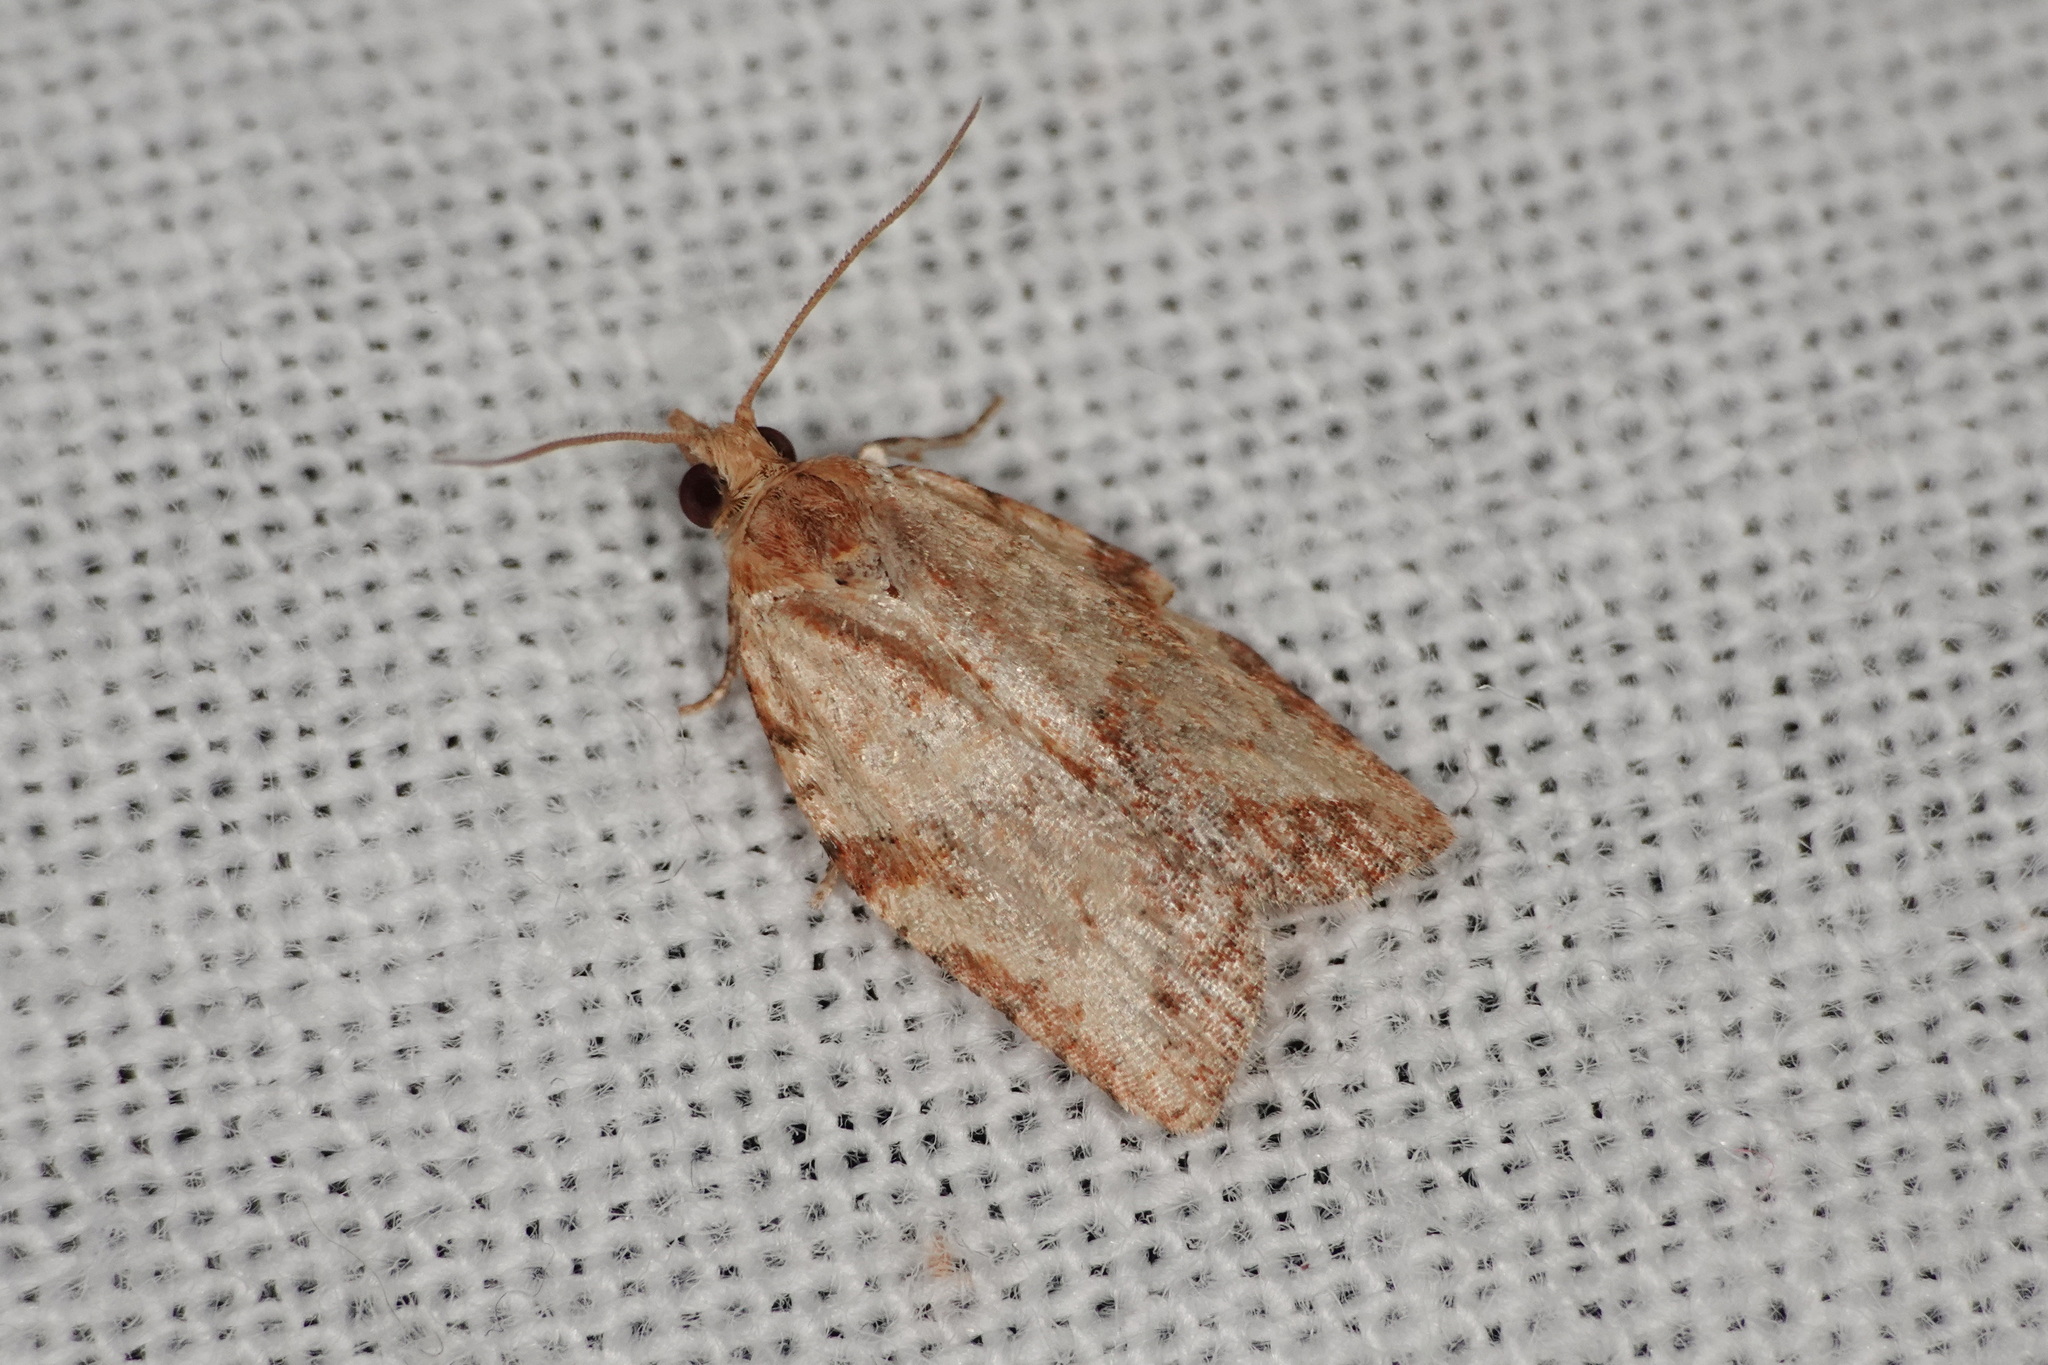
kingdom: Animalia
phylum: Arthropoda
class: Insecta
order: Lepidoptera
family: Tortricidae
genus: Epiphyas
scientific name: Epiphyas postvittana
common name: Light brown apple moth
